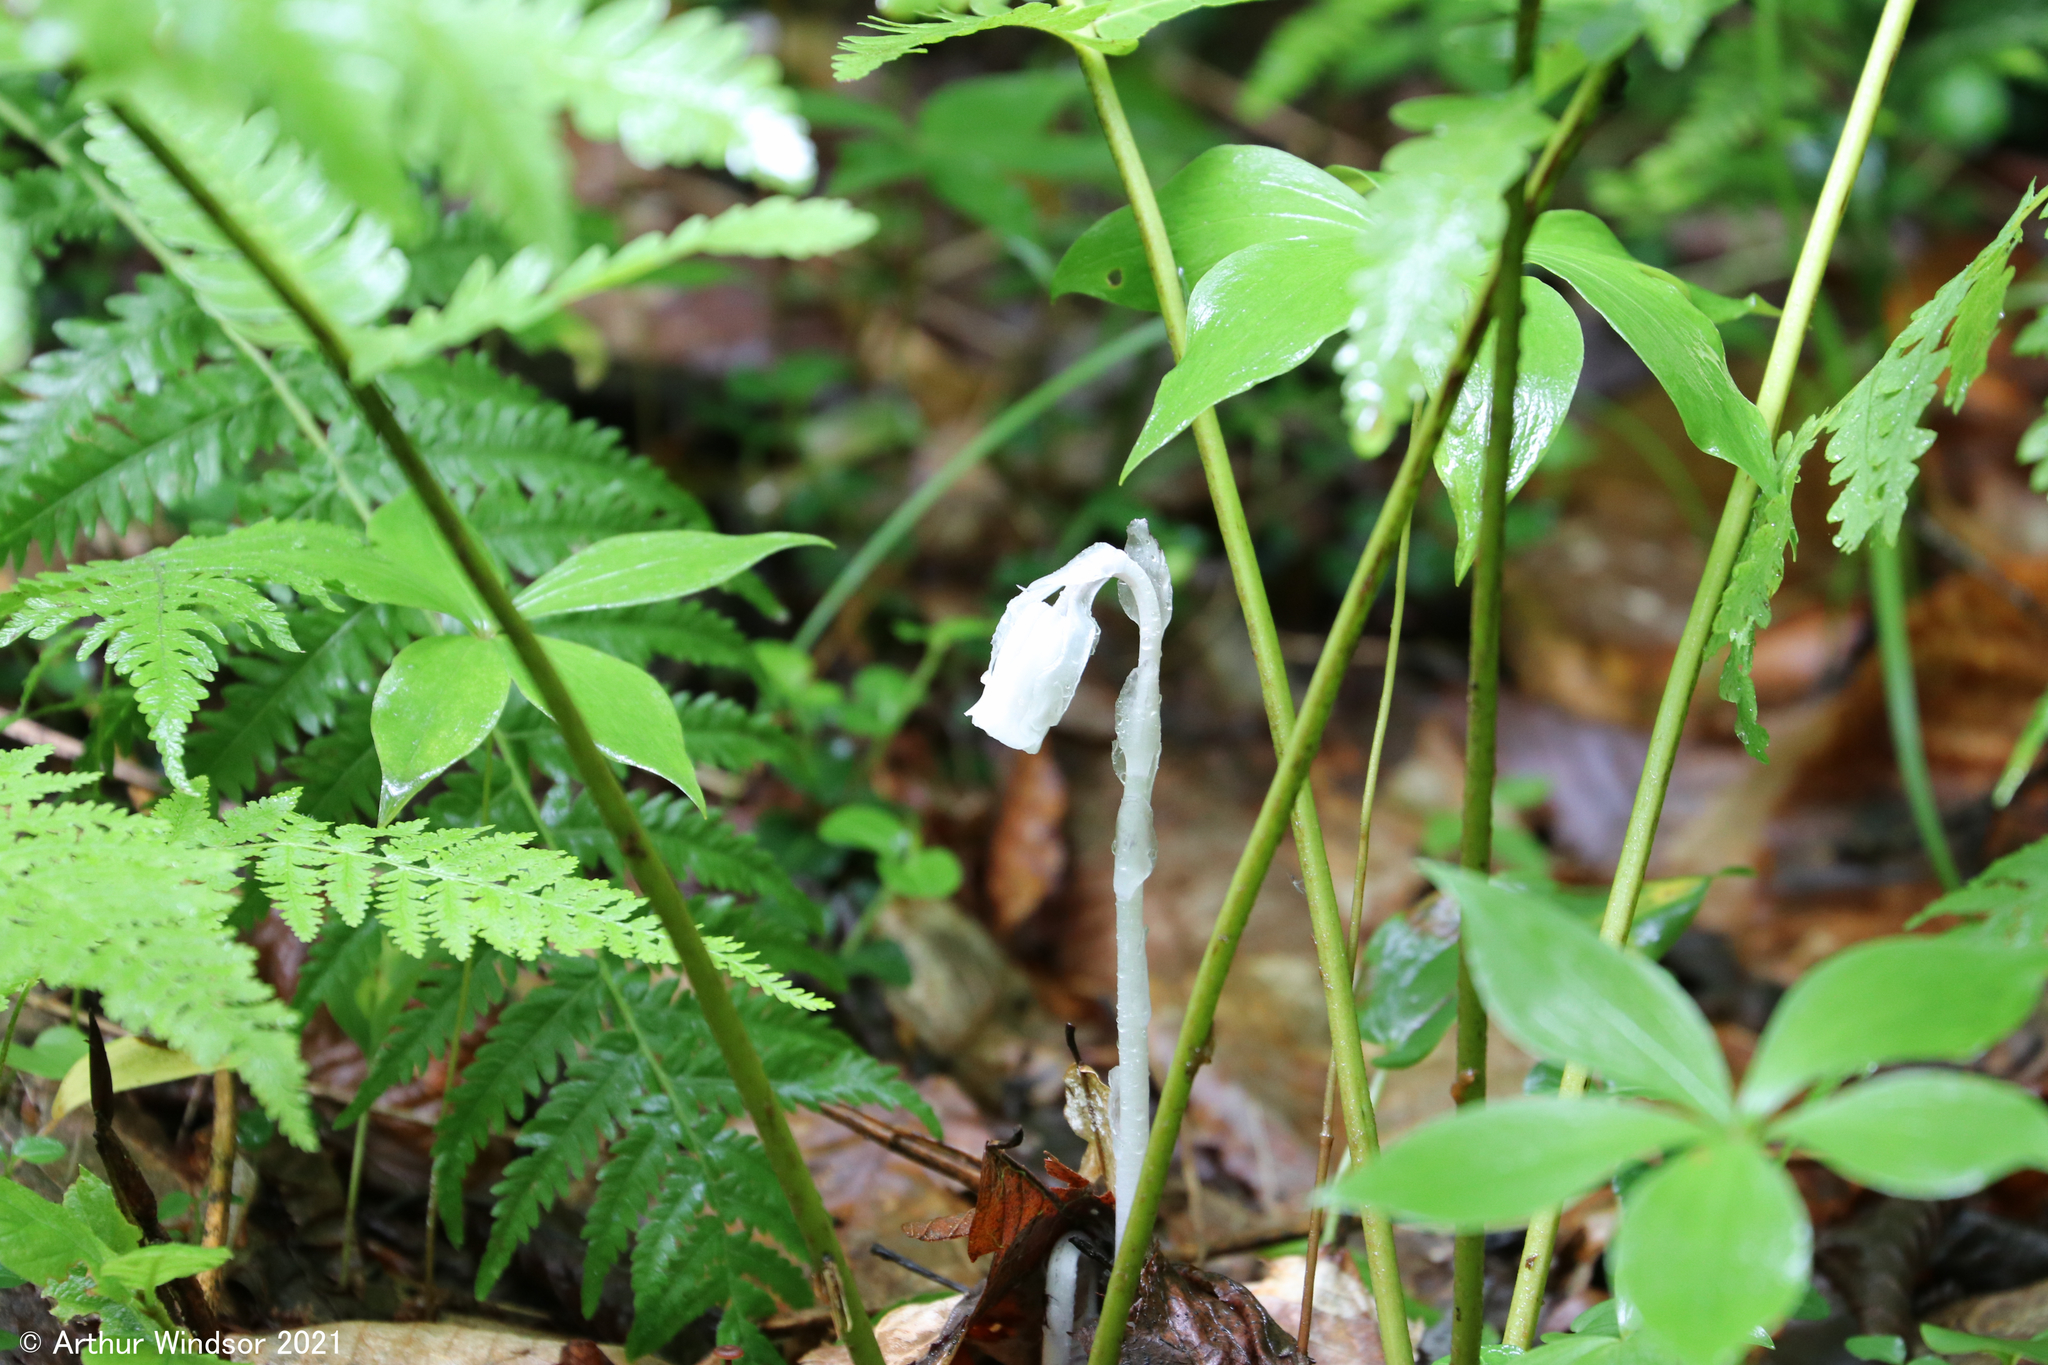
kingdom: Plantae
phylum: Tracheophyta
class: Magnoliopsida
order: Ericales
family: Ericaceae
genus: Monotropa
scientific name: Monotropa uniflora
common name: Convulsion root
